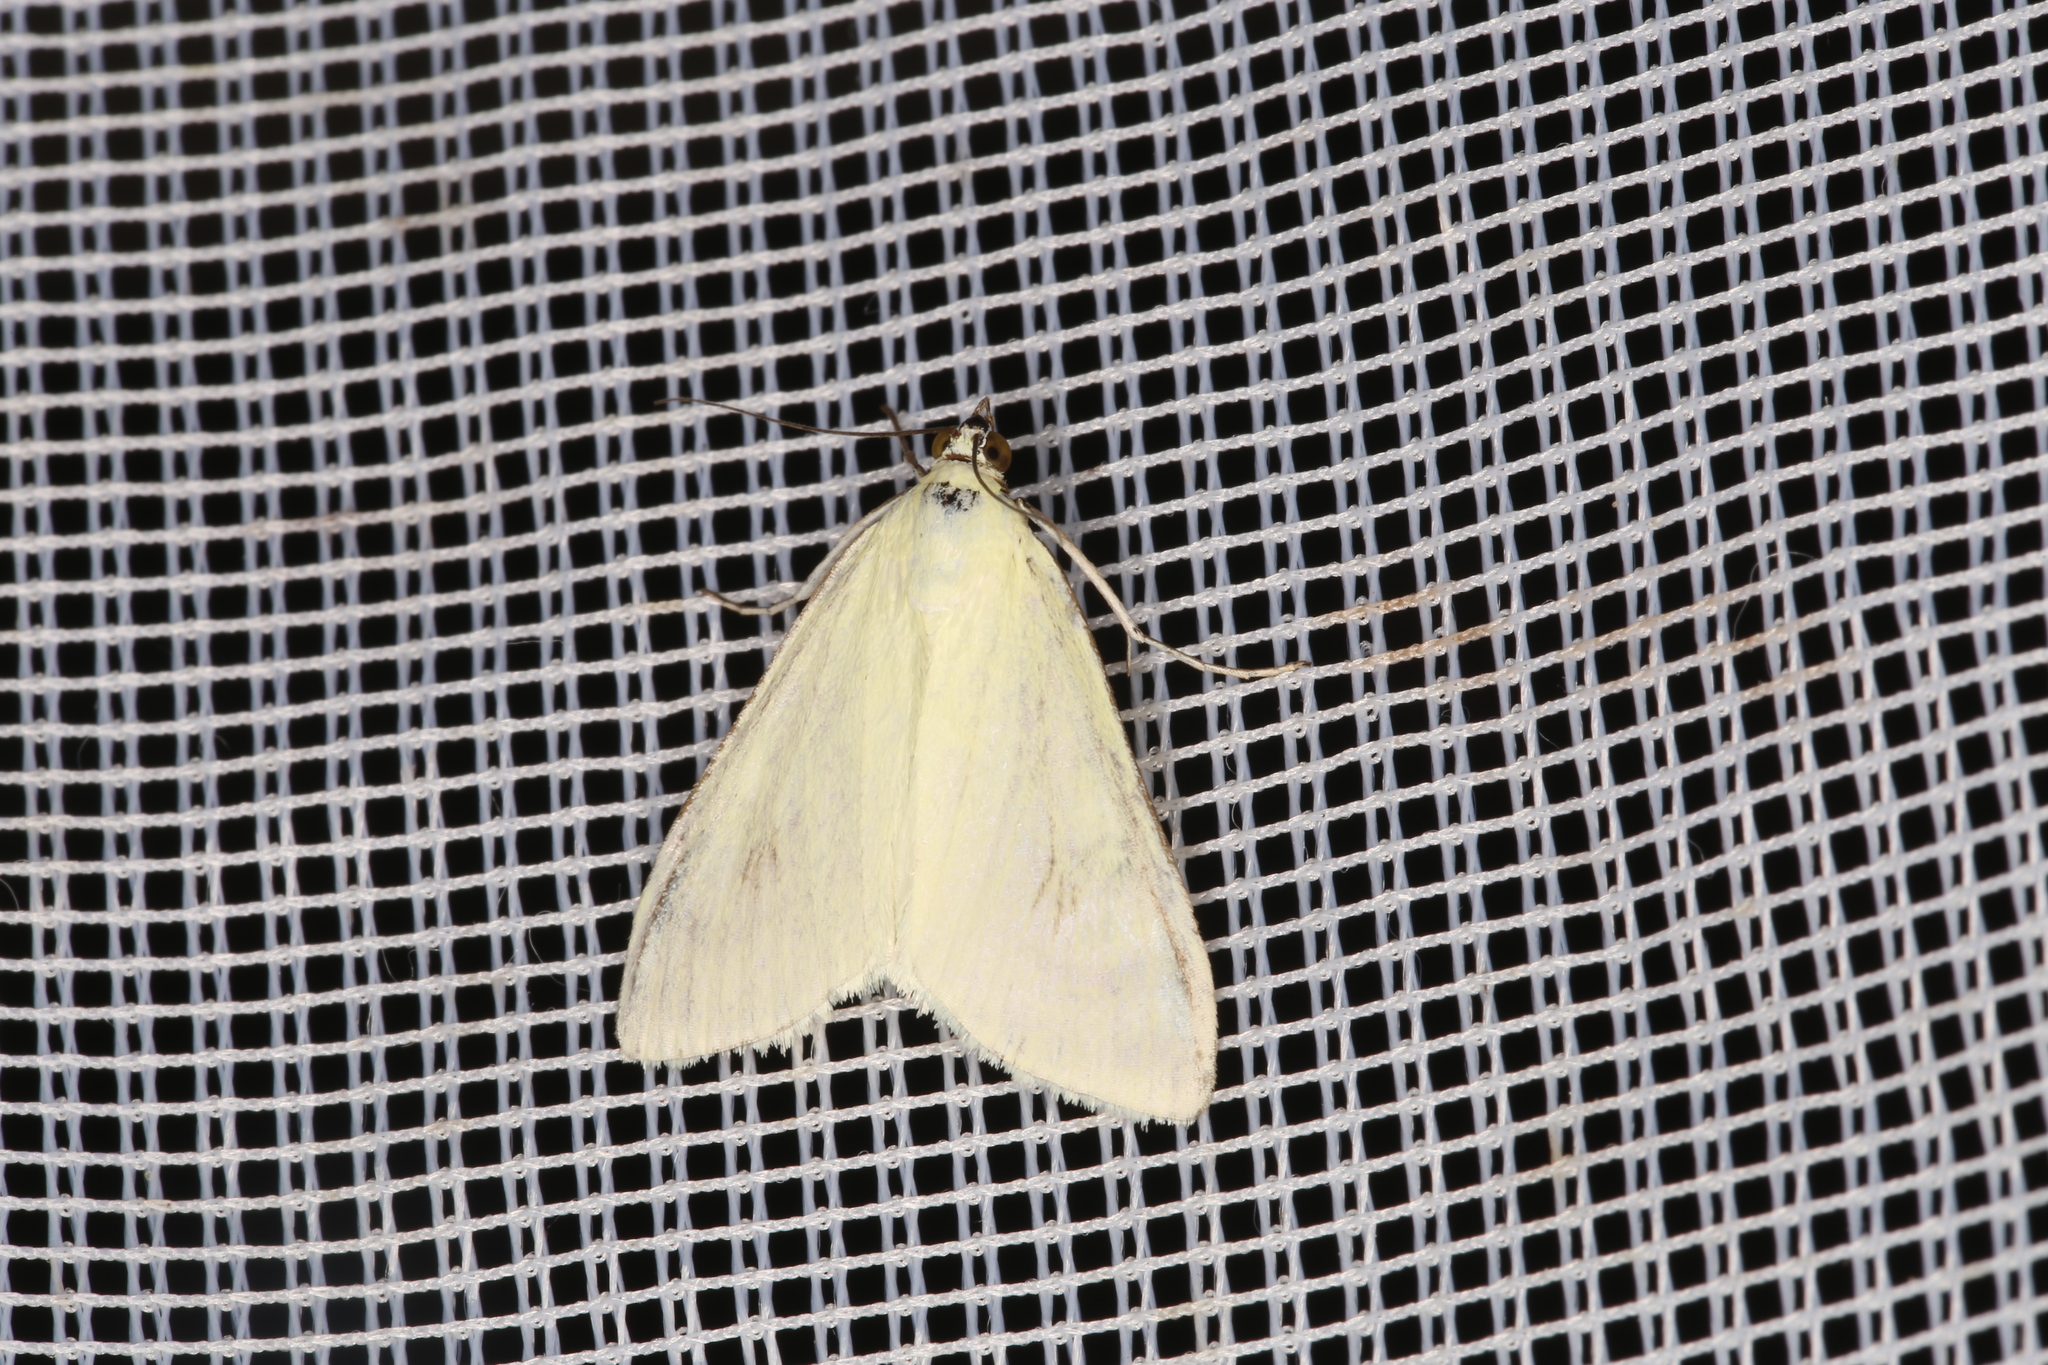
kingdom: Animalia
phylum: Arthropoda
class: Insecta
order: Lepidoptera
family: Crambidae
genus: Sitochroa
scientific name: Sitochroa palealis
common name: Greenish-yellow sitochroa moth
